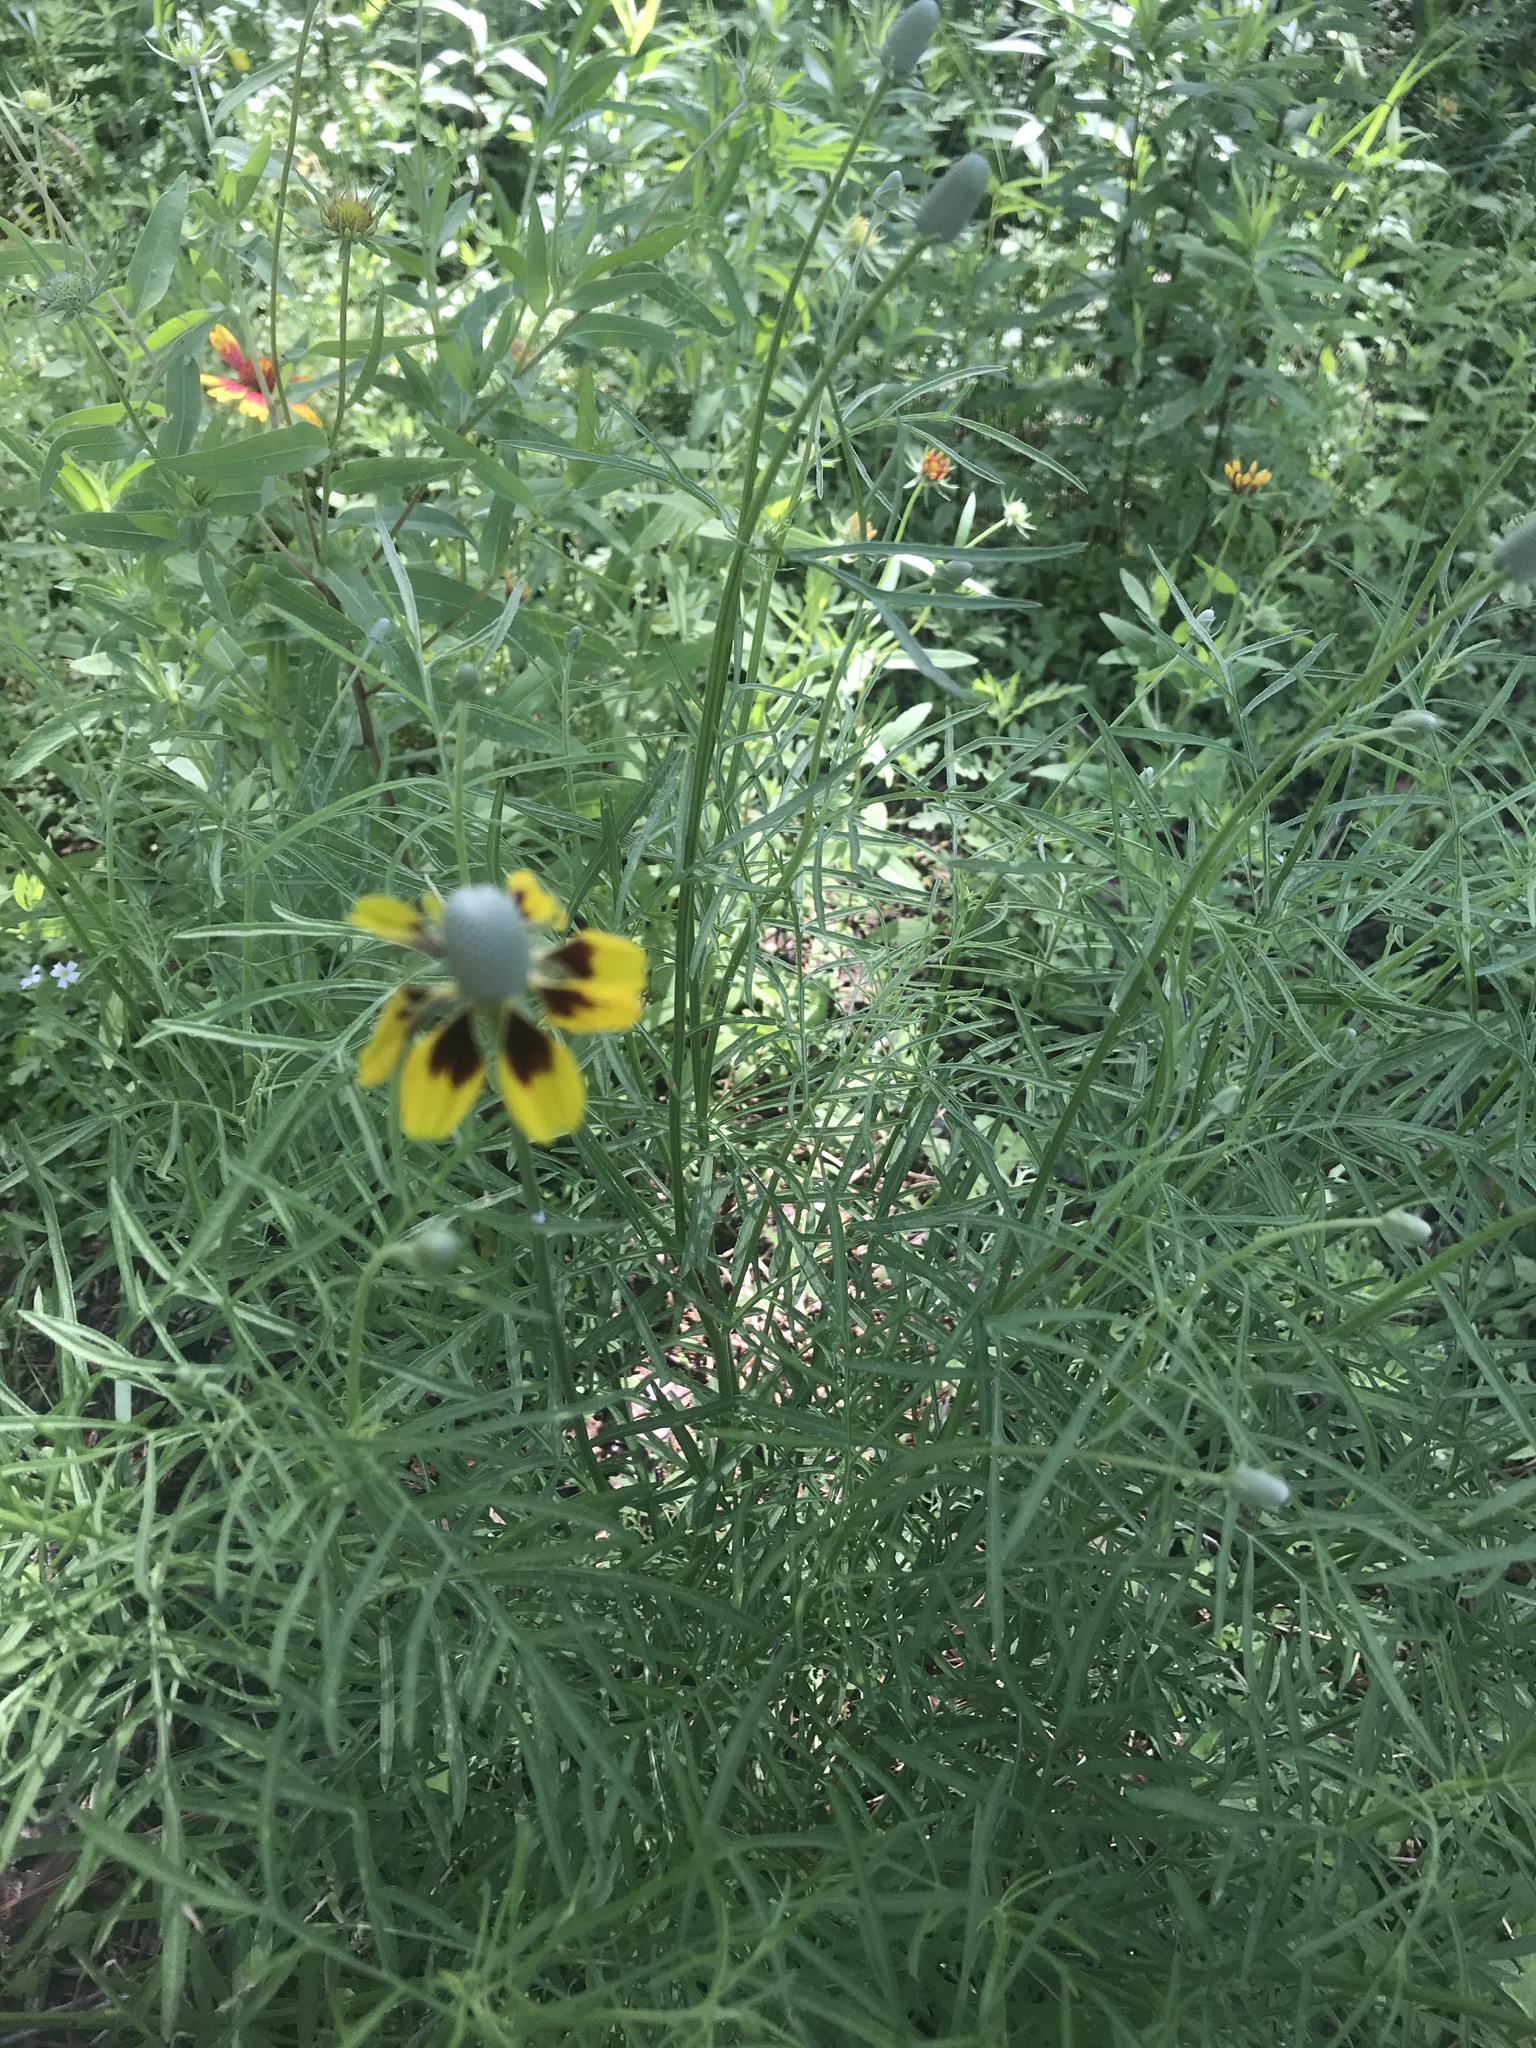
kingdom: Plantae
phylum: Tracheophyta
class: Magnoliopsida
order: Asterales
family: Asteraceae
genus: Ratibida
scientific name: Ratibida columnifera
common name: Prairie coneflower
